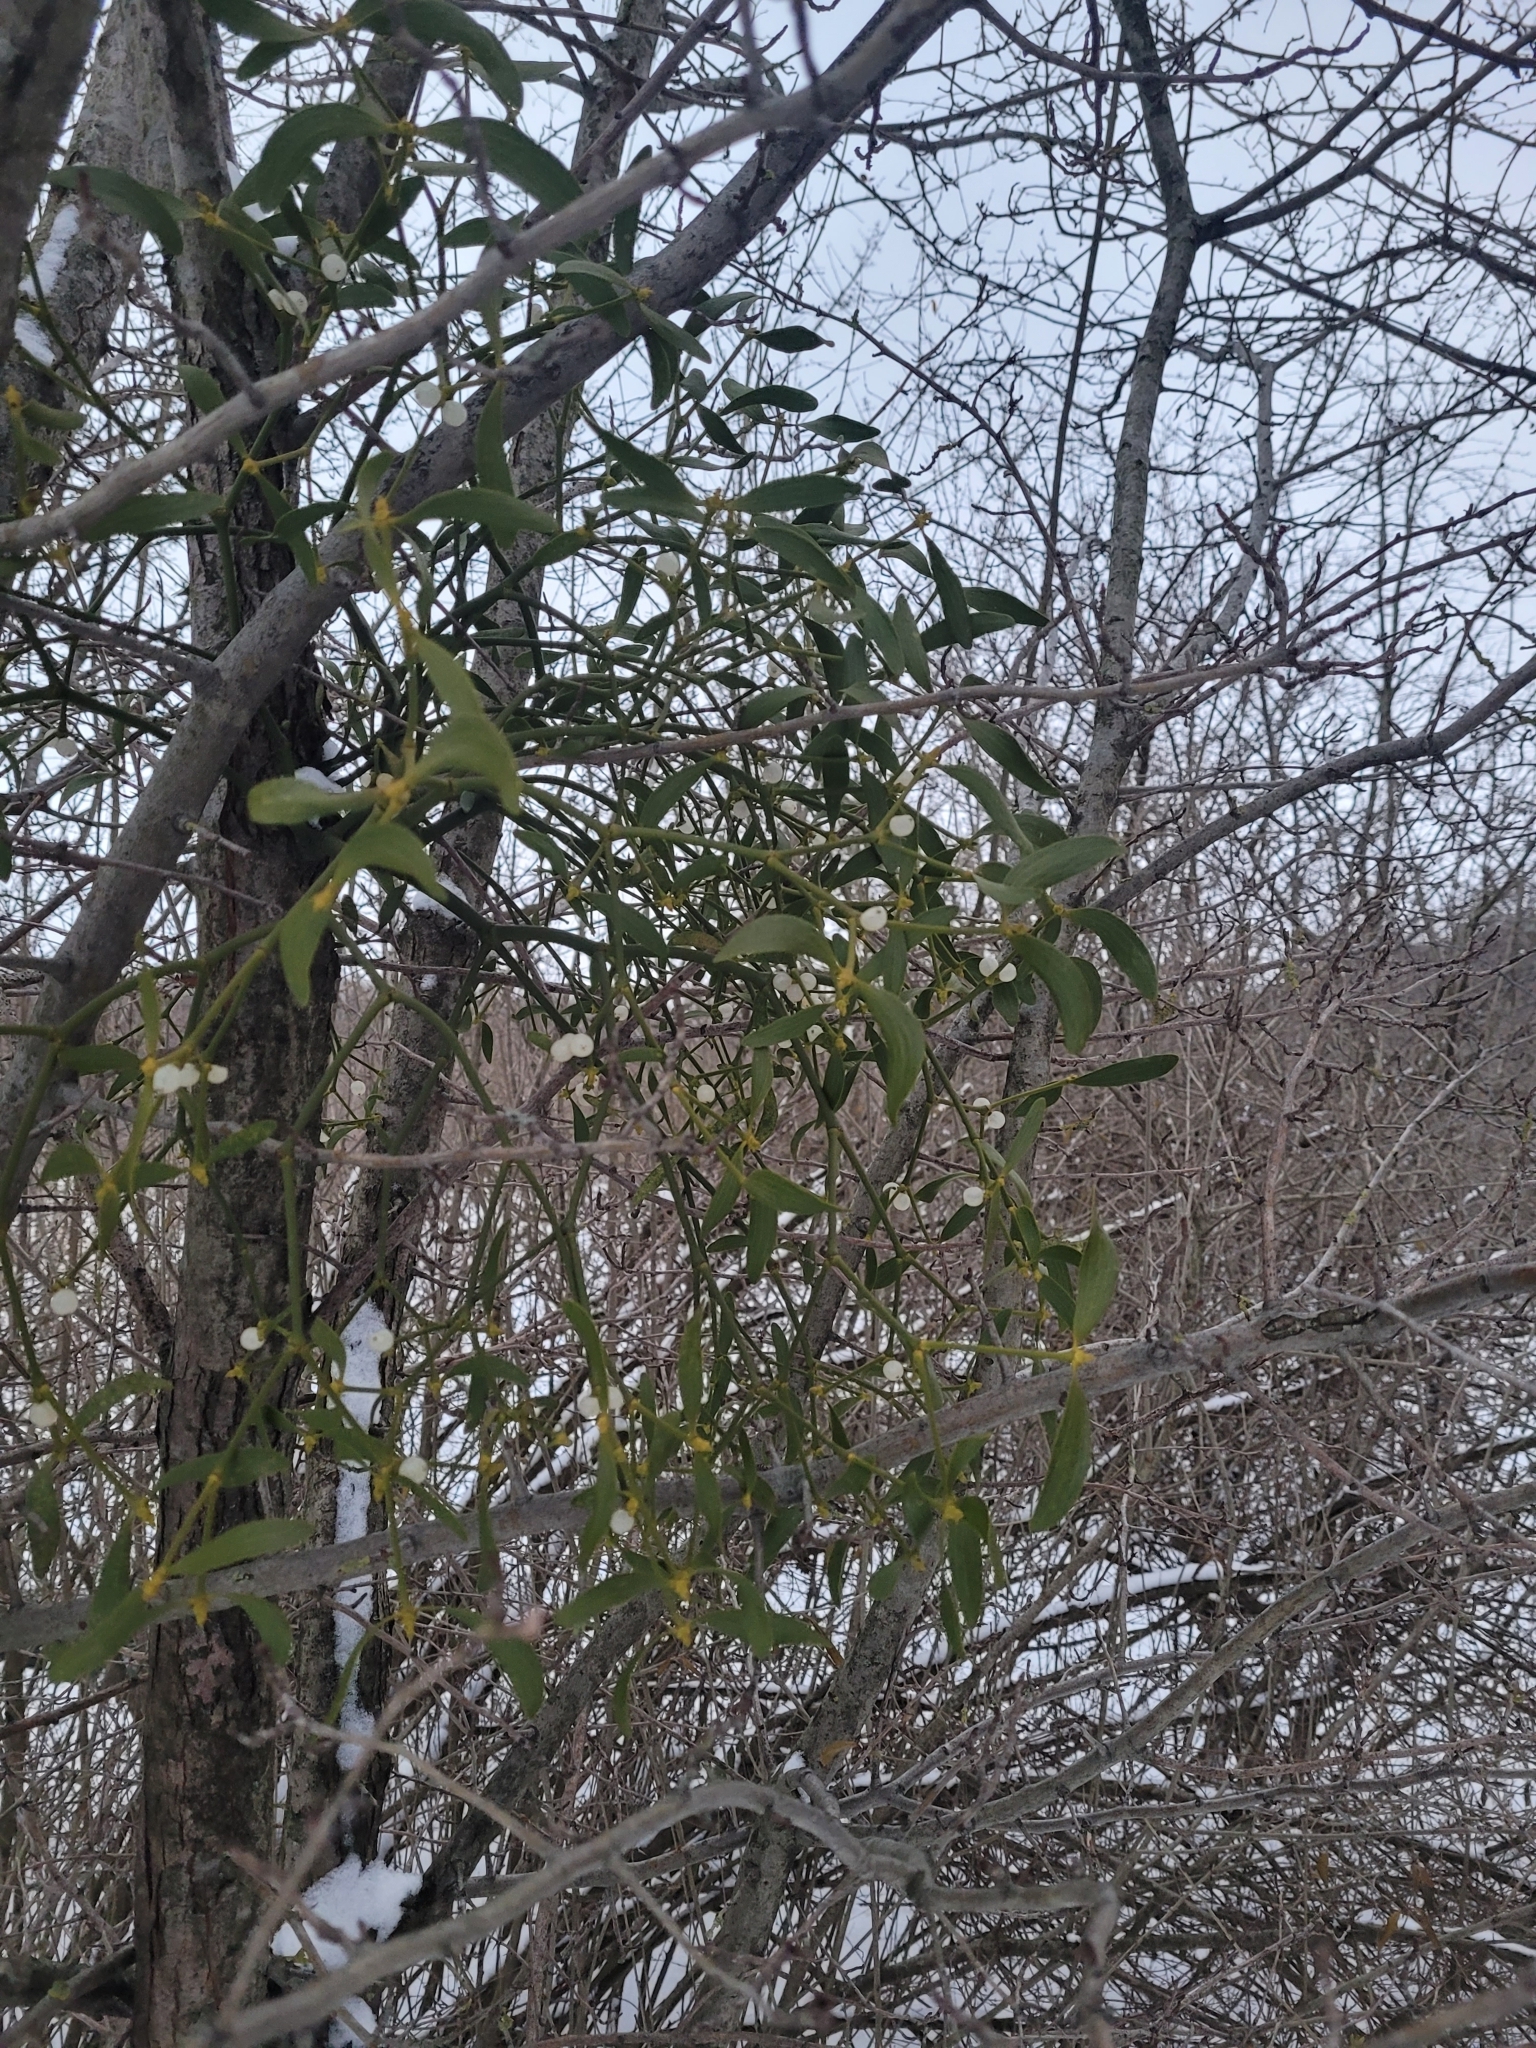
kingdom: Plantae
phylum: Tracheophyta
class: Magnoliopsida
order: Santalales
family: Viscaceae
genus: Viscum
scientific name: Viscum album
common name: Mistletoe
